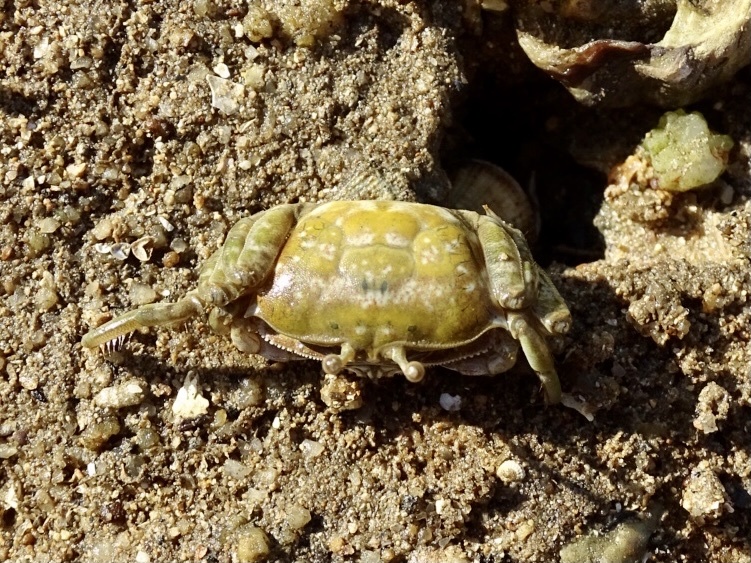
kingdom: Animalia
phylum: Arthropoda
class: Malacostraca
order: Decapoda
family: Ocypodidae
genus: Gelasimus
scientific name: Gelasimus borealis
